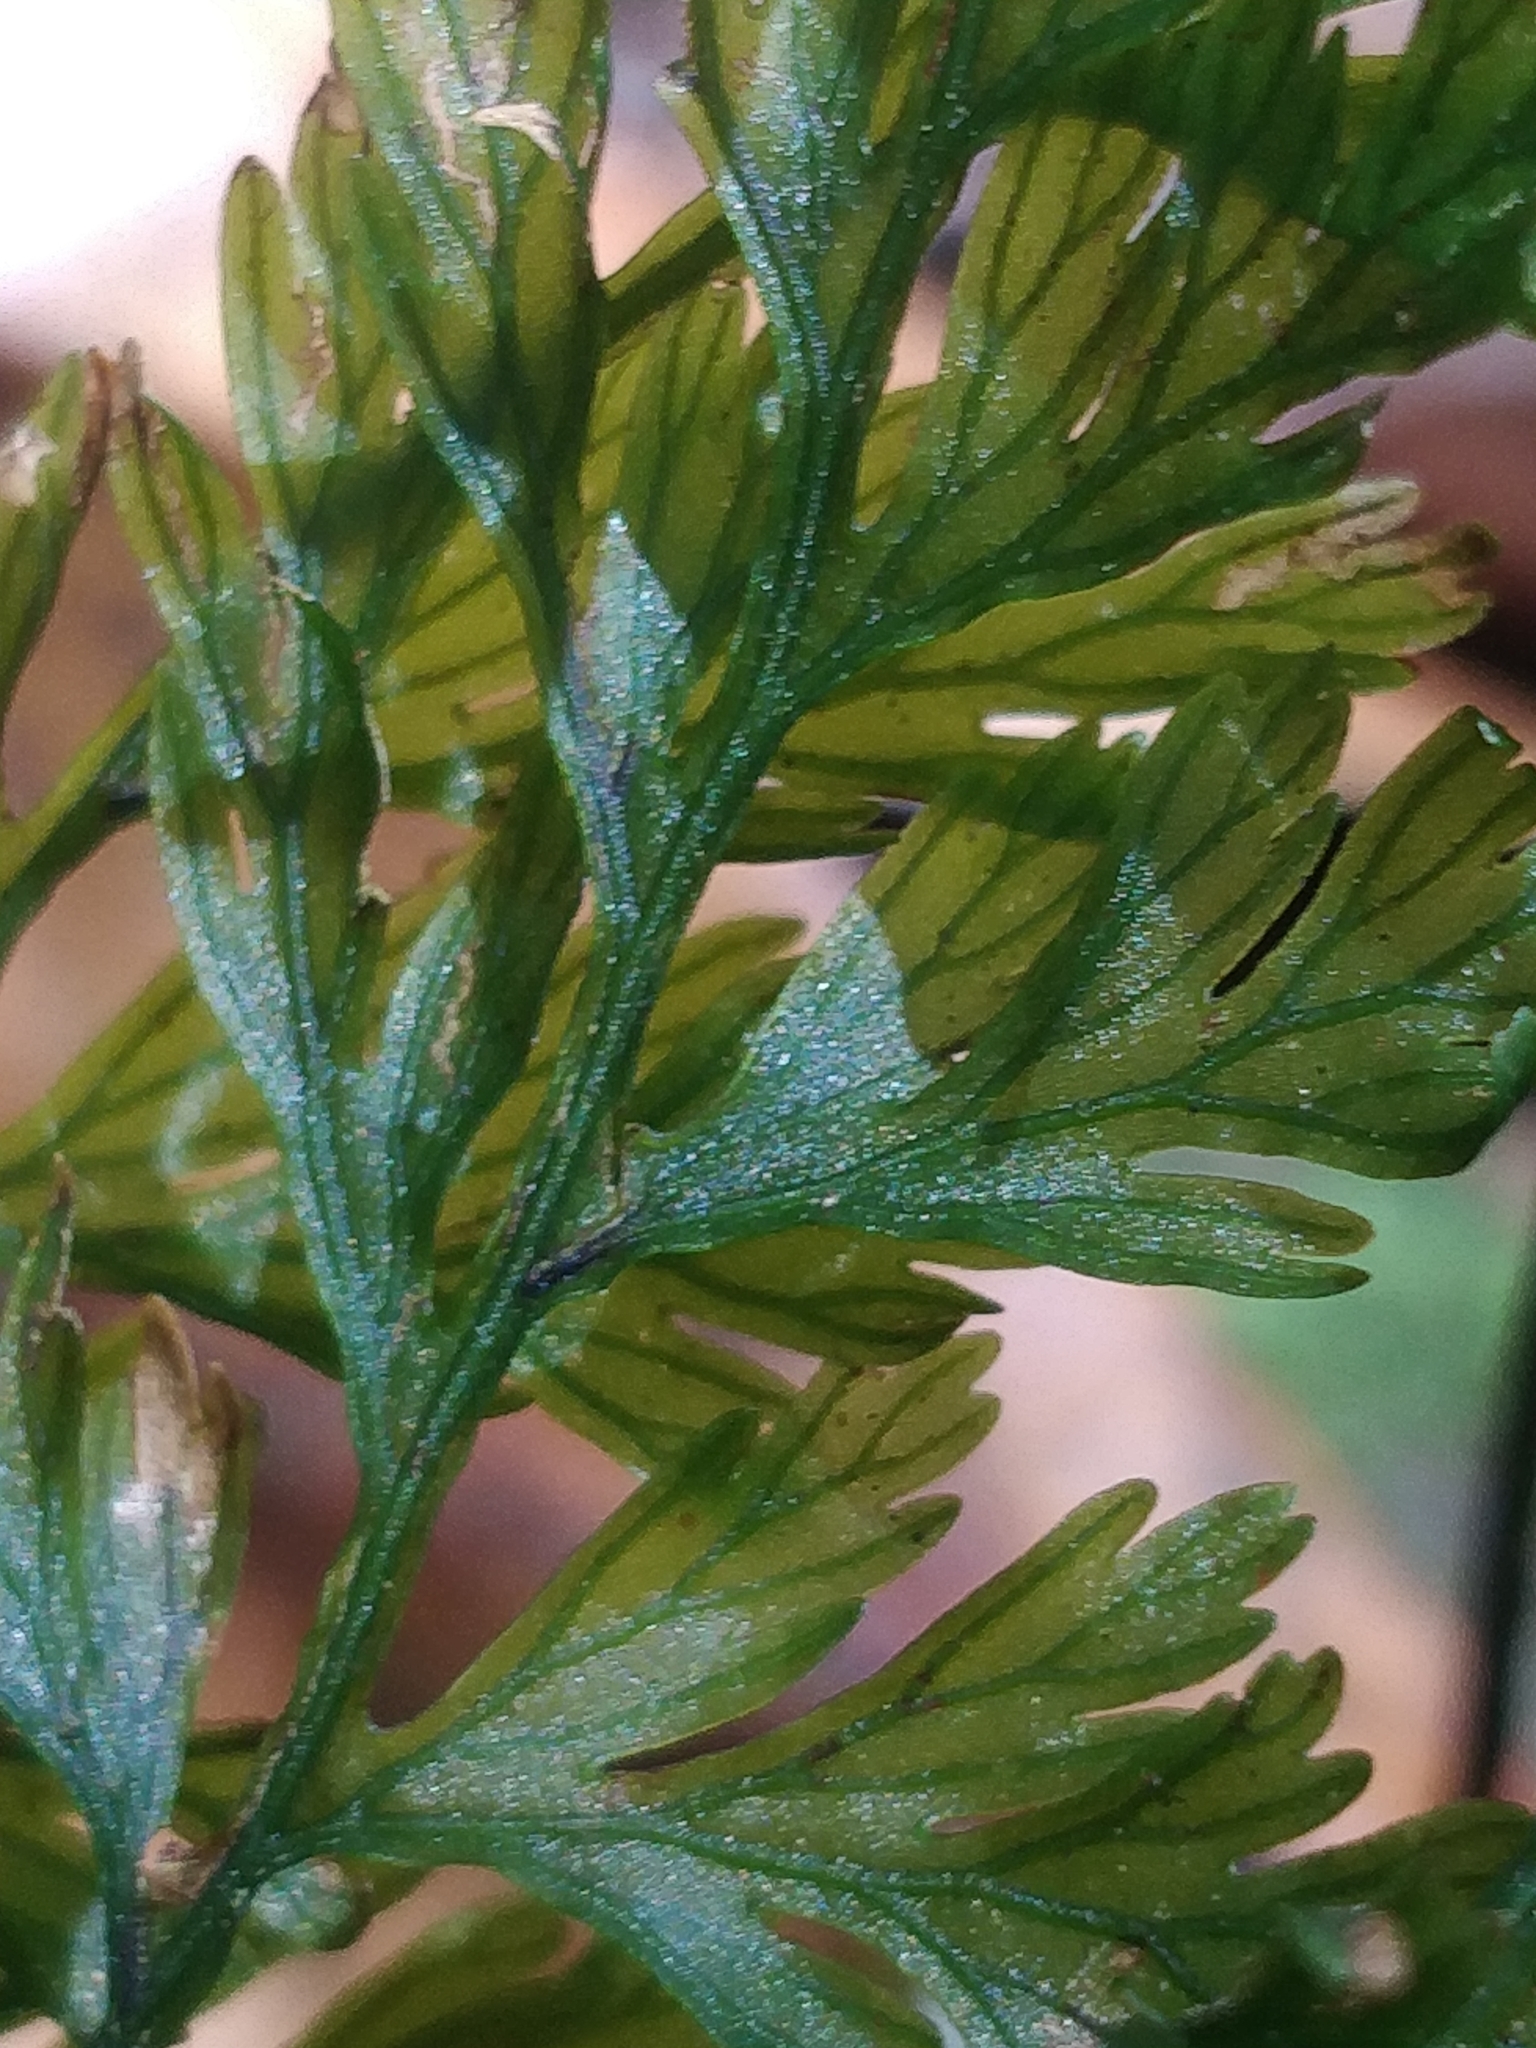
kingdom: Plantae
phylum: Tracheophyta
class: Polypodiopsida
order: Hymenophyllales
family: Hymenophyllaceae
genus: Vandenboschia
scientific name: Vandenboschia speciosa
